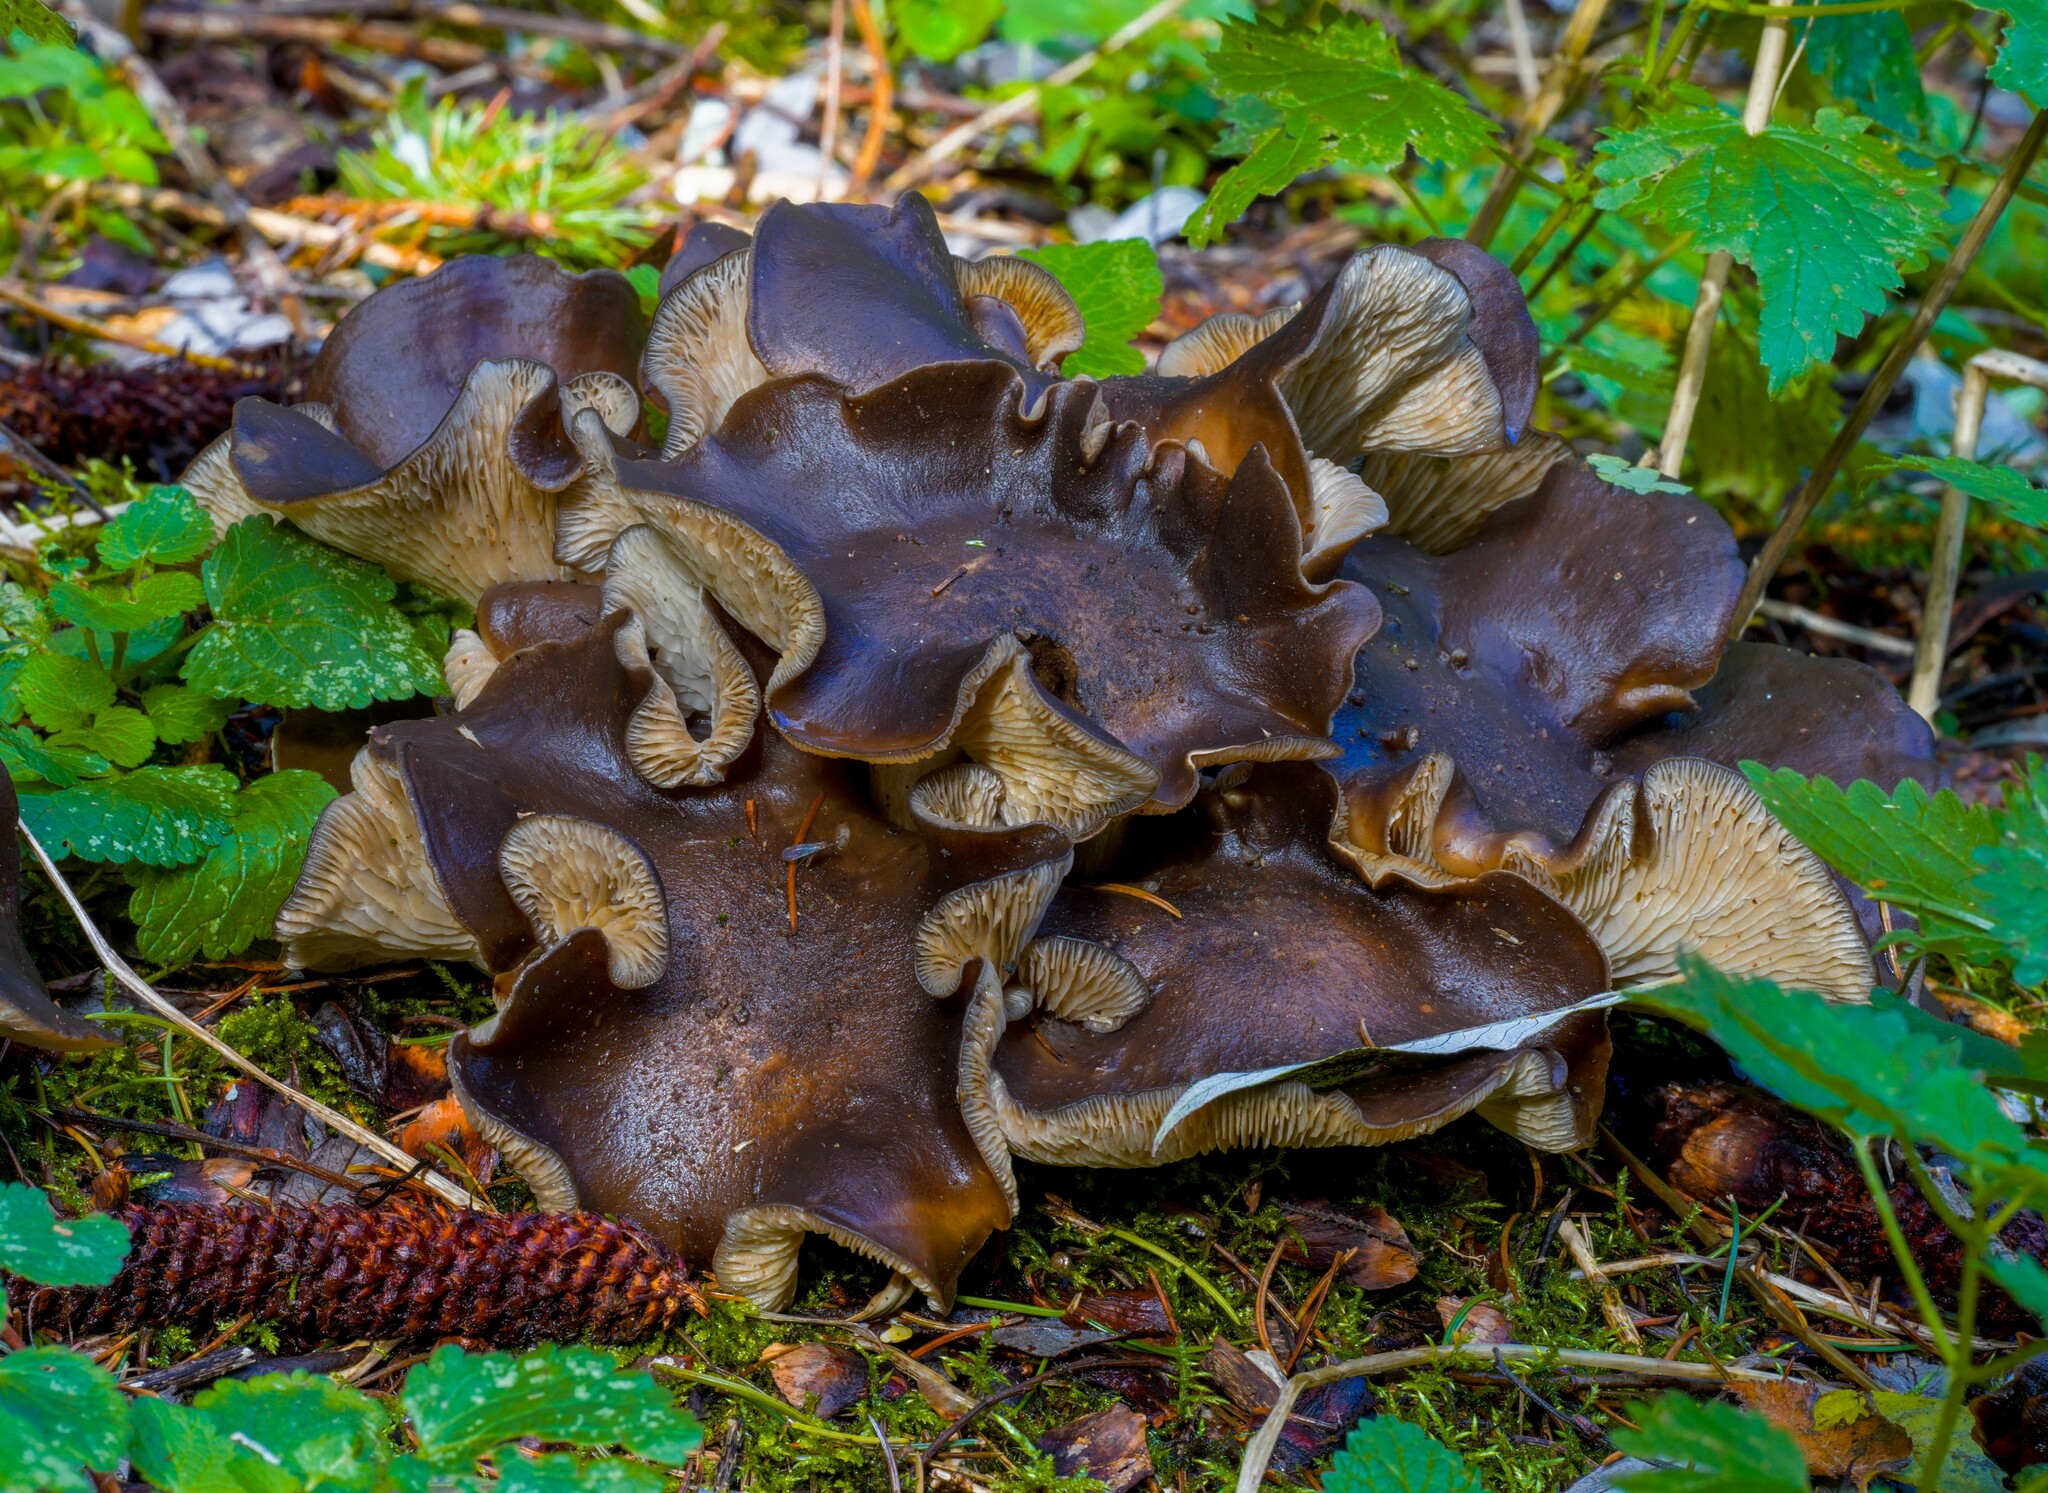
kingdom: Fungi
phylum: Basidiomycota
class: Agaricomycetes
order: Agaricales
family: Lyophyllaceae
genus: Lyophyllum
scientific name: Lyophyllum loricatum
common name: Gristly domecap
